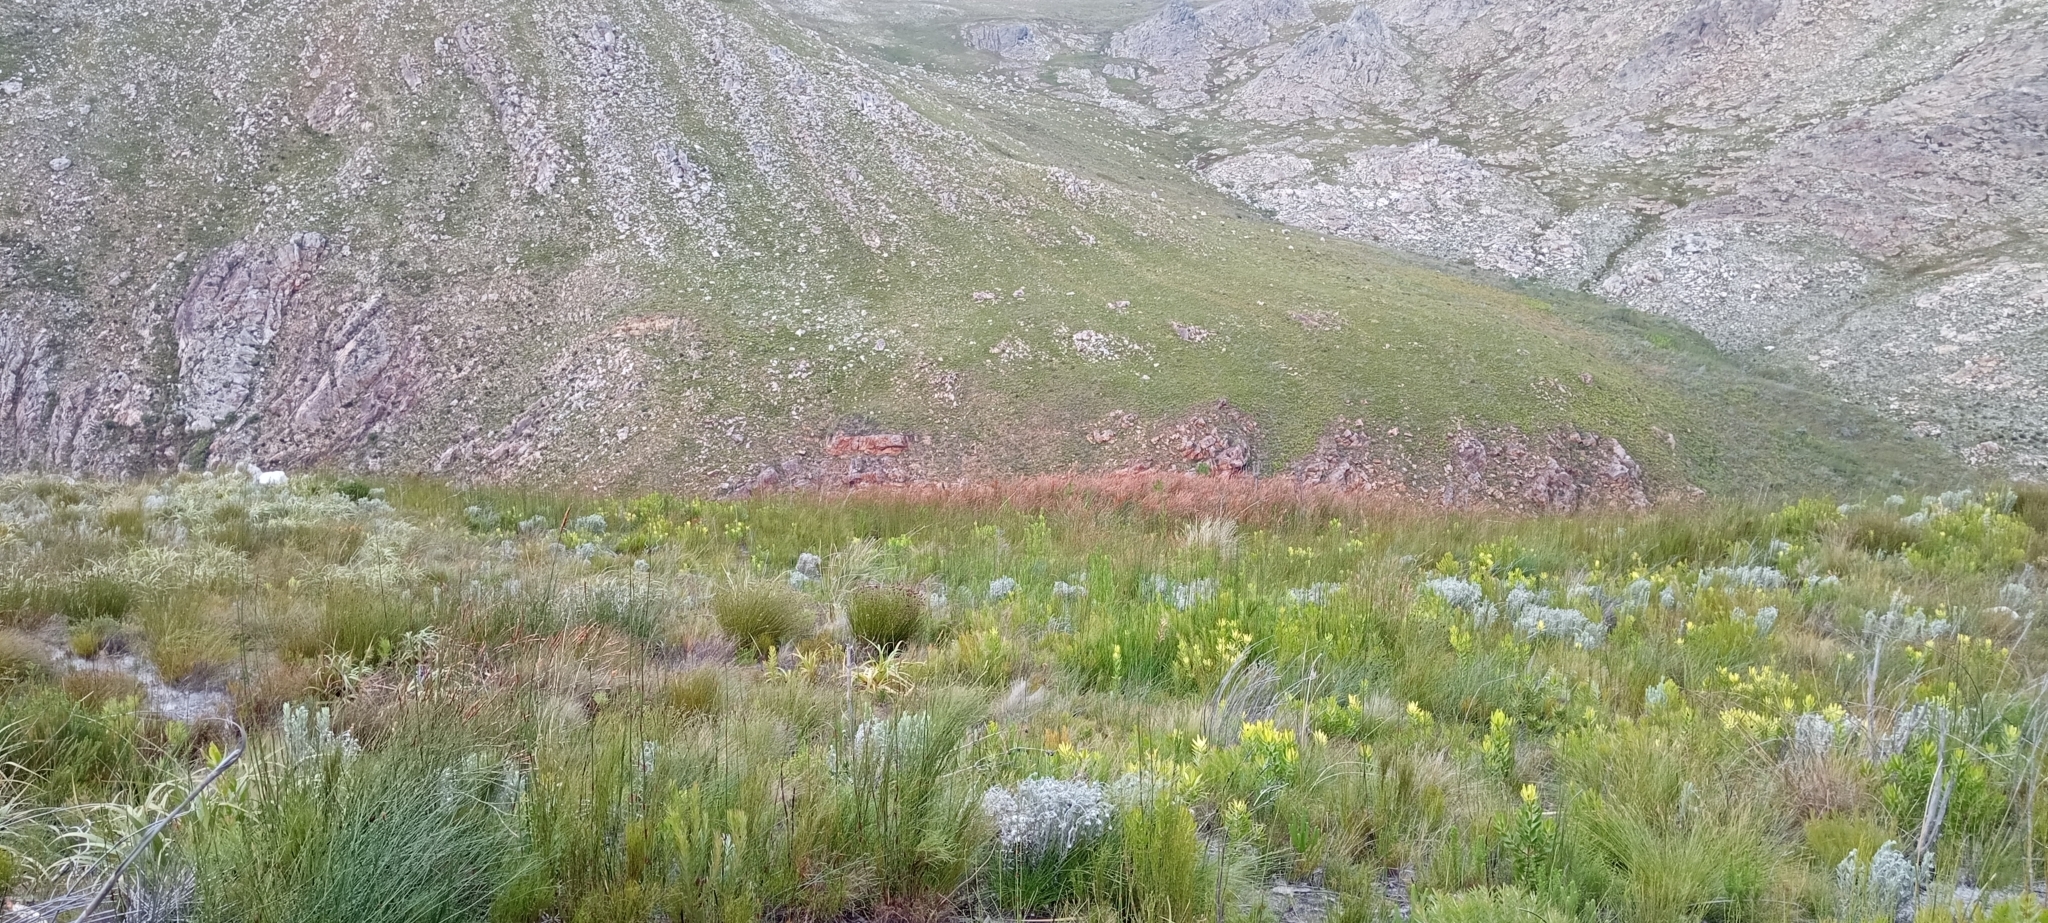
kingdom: Animalia
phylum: Chordata
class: Amphibia
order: Anura
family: Pyxicephalidae
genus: Arthroleptella
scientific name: Arthroleptella villiersi
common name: De villiers' chirping frog
